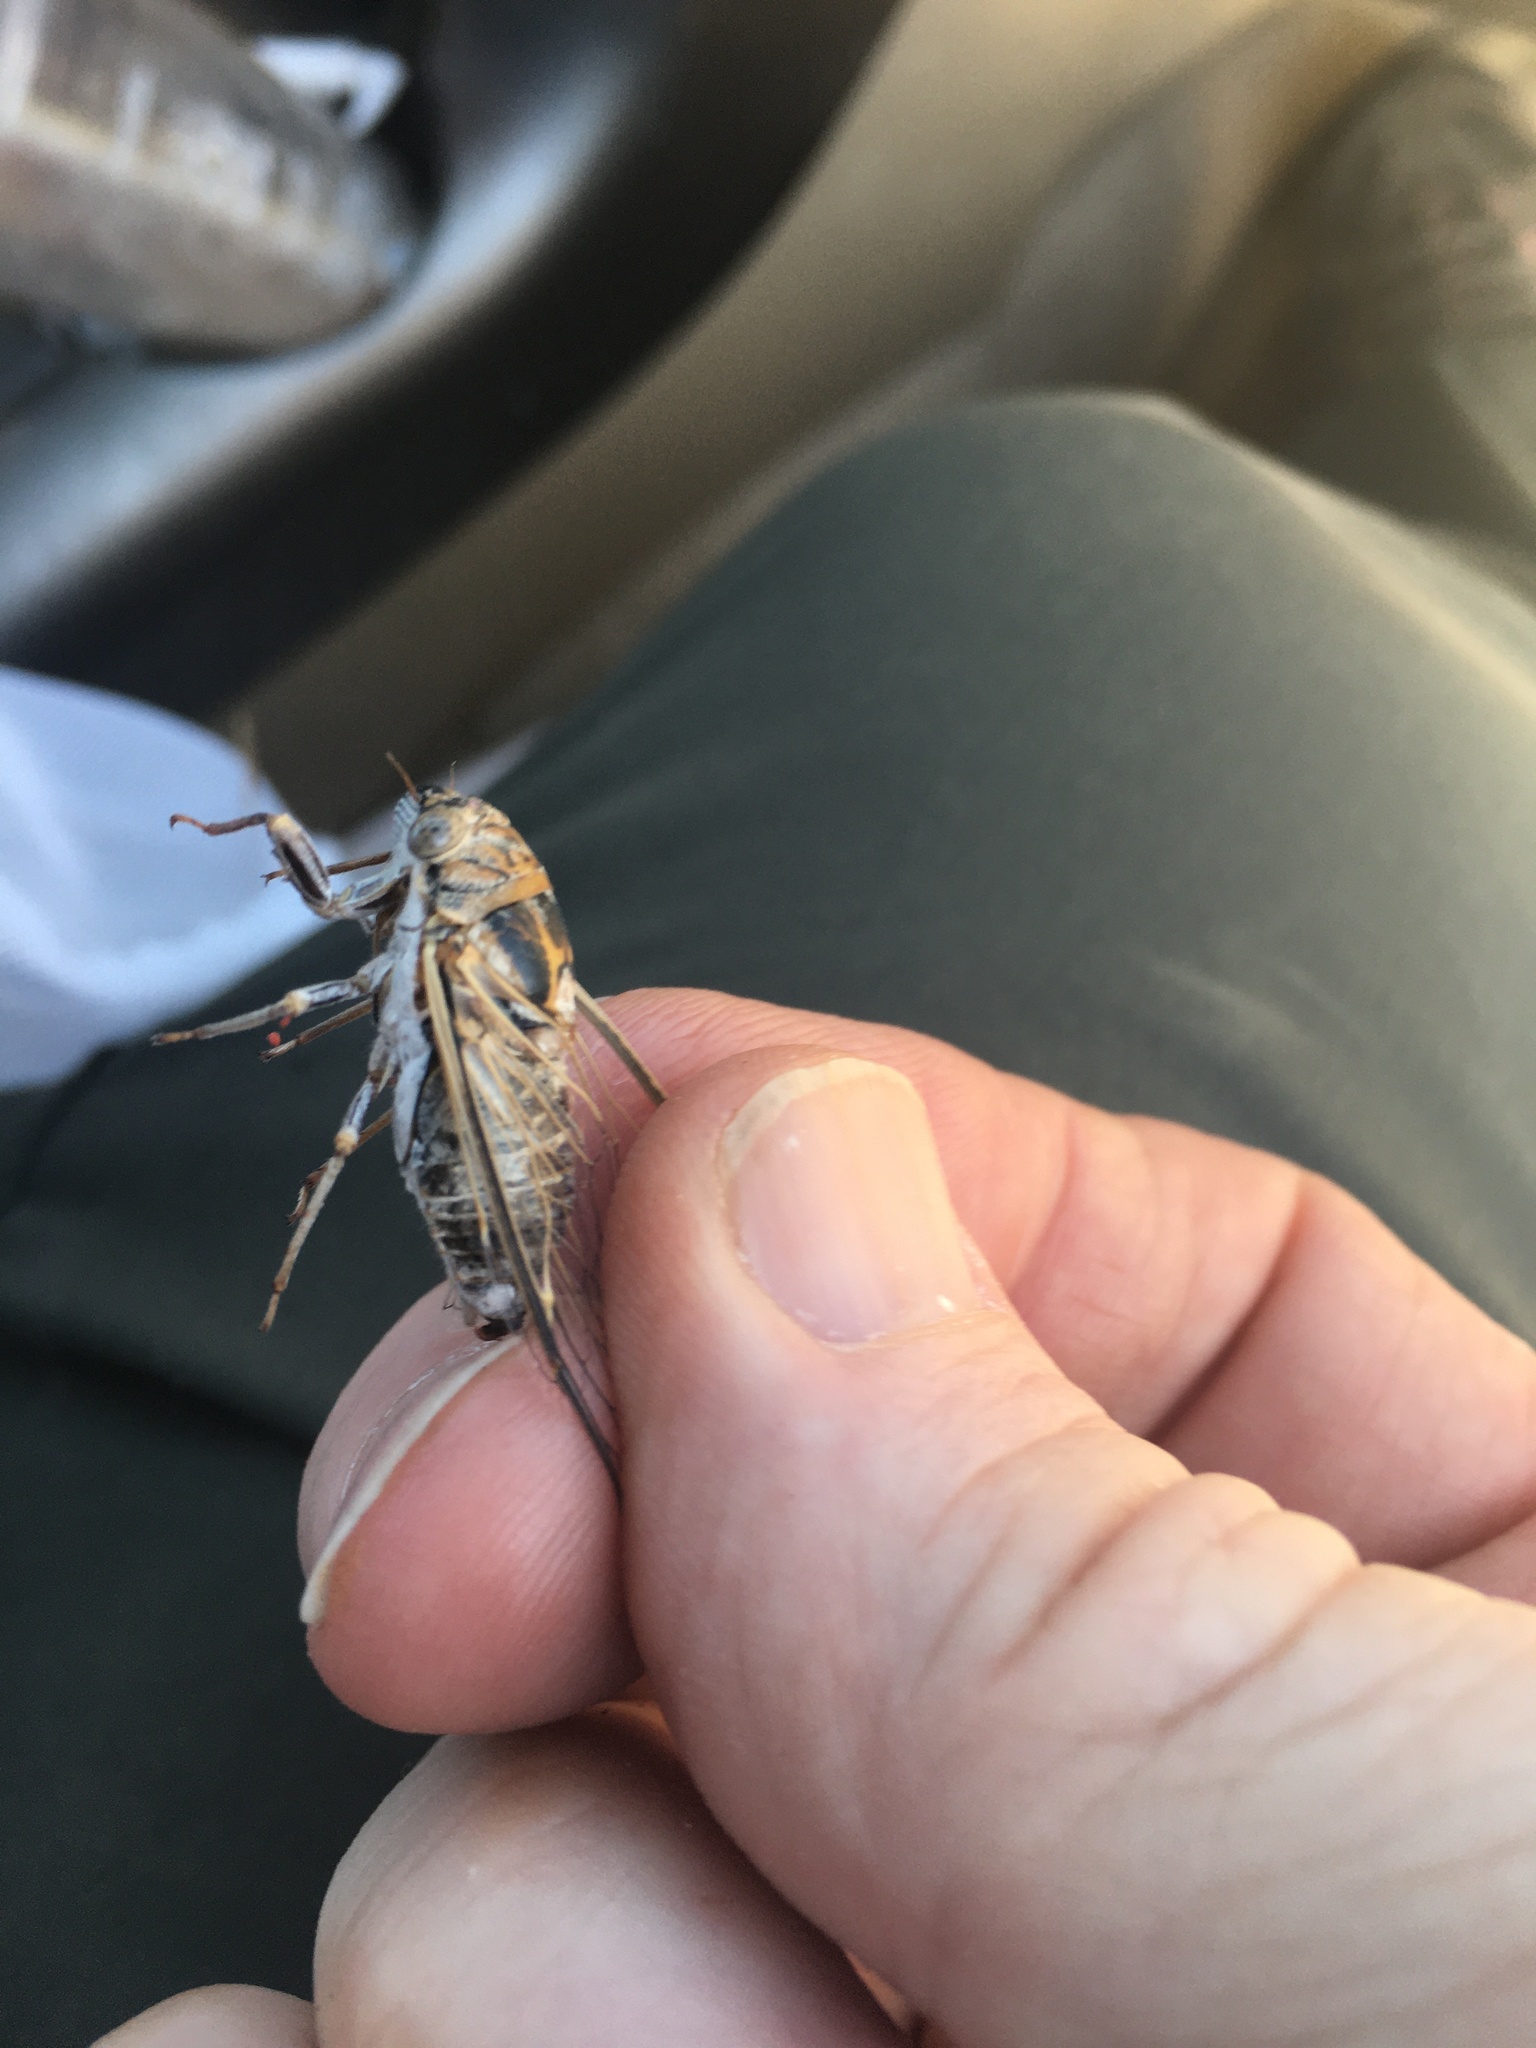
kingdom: Animalia
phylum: Arthropoda
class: Insecta
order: Hemiptera
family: Cicadidae
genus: Diceroprocta
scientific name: Diceroprocta eugraphica
